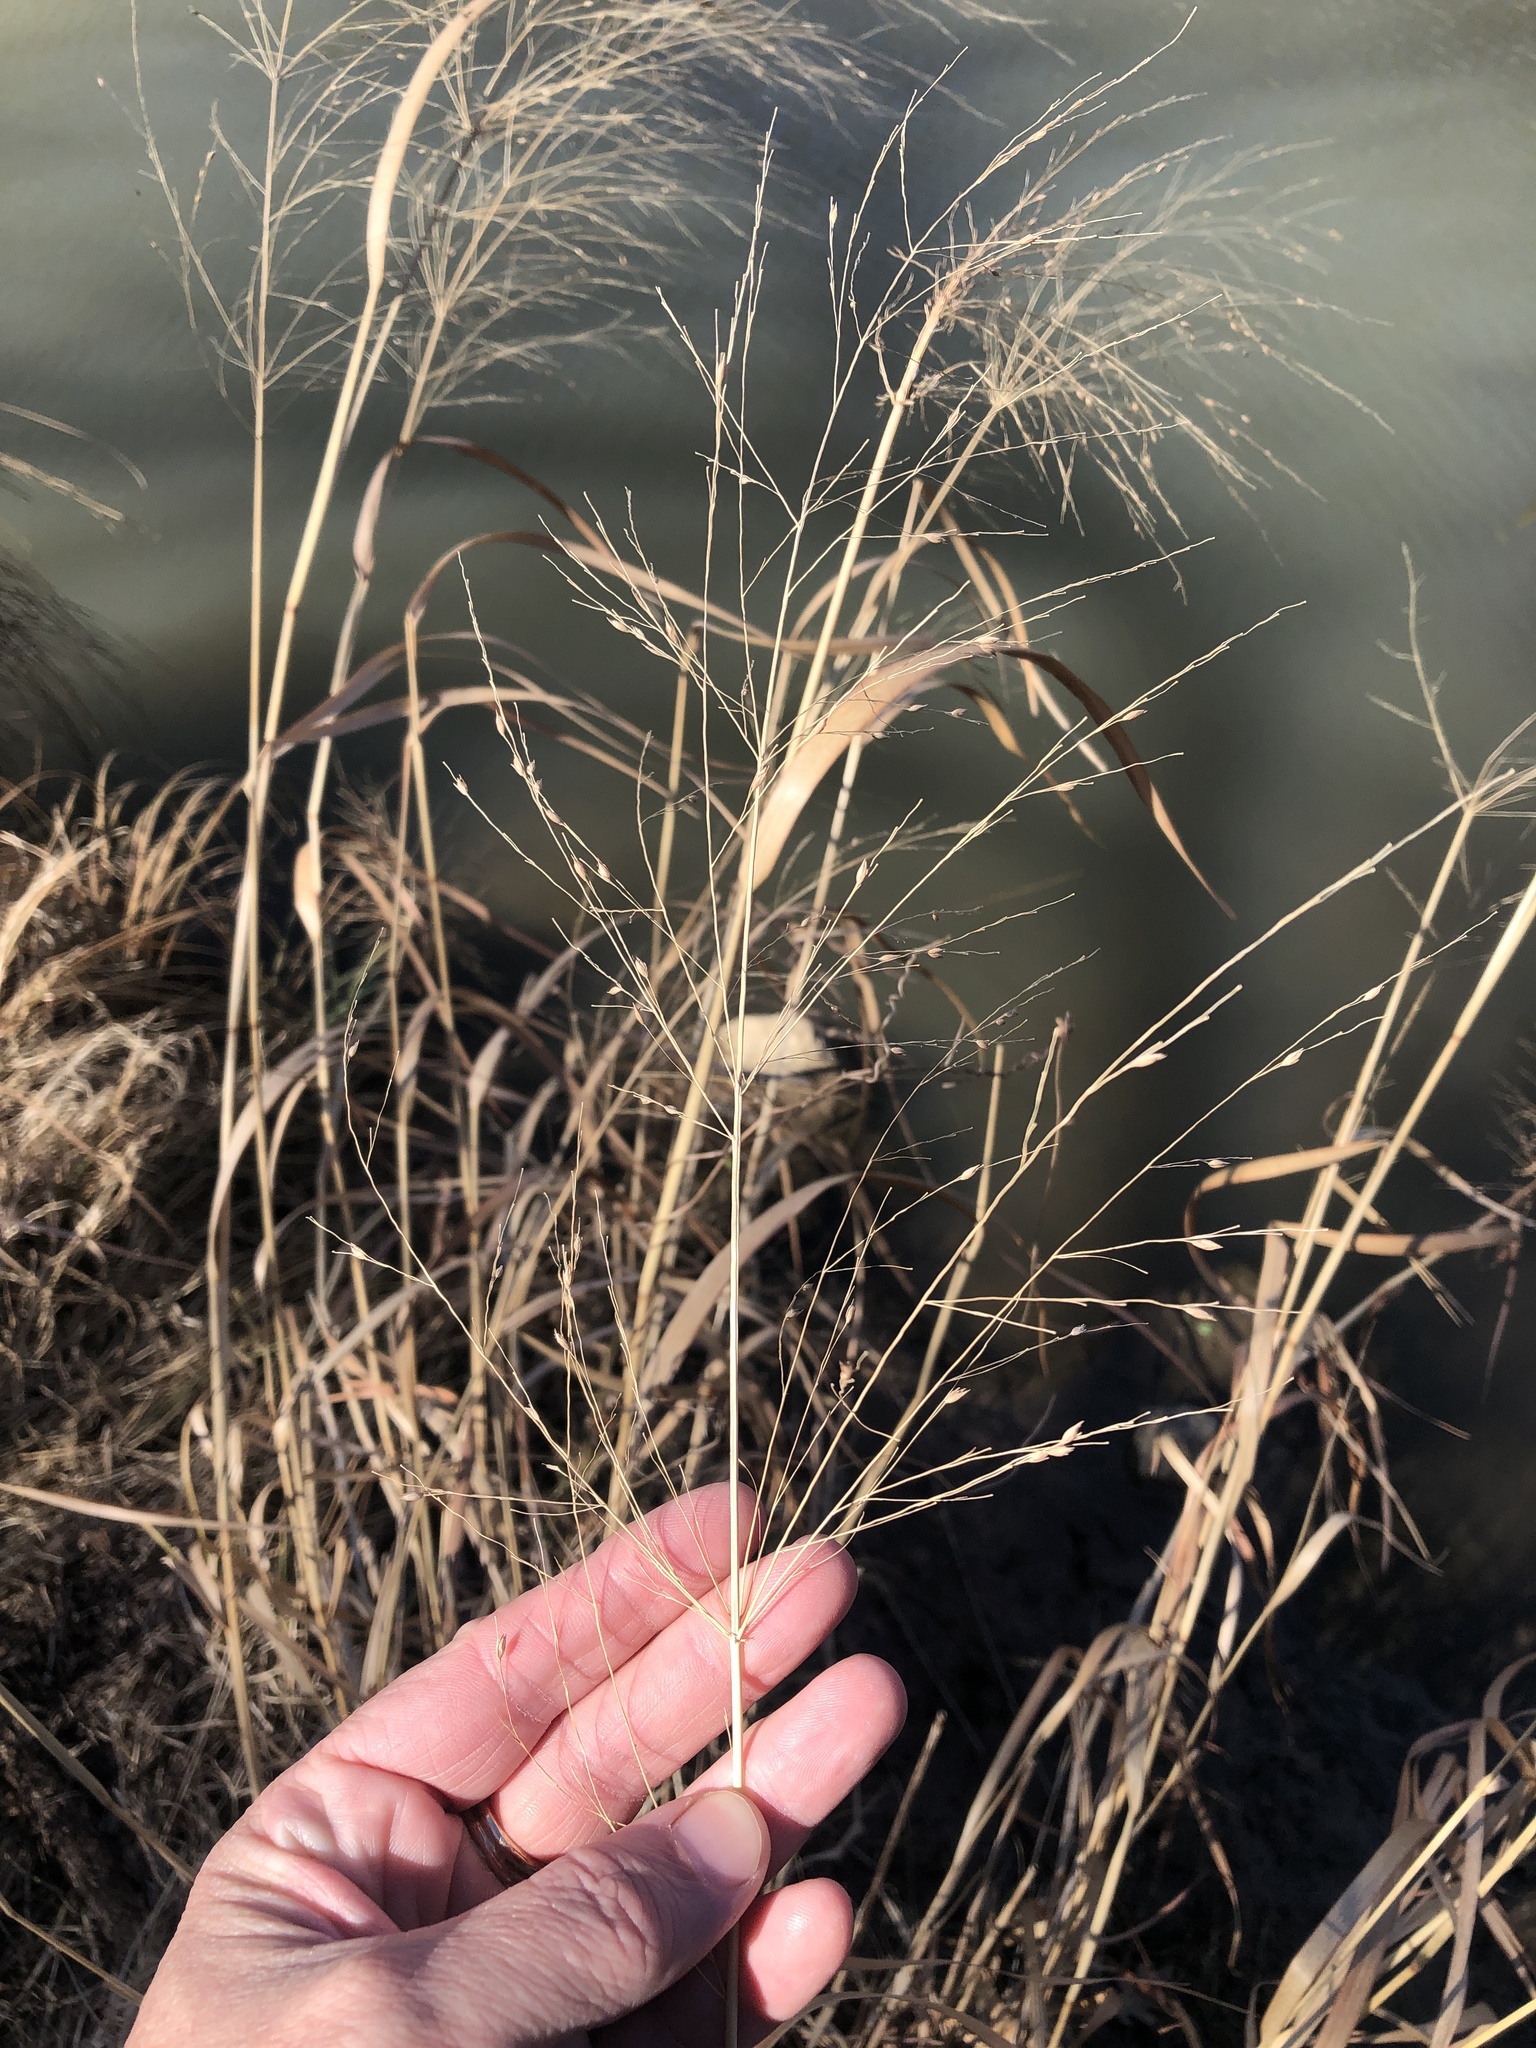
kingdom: Plantae
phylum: Tracheophyta
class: Liliopsida
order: Poales
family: Poaceae
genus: Panicum
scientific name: Panicum virgatum
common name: Switchgrass
